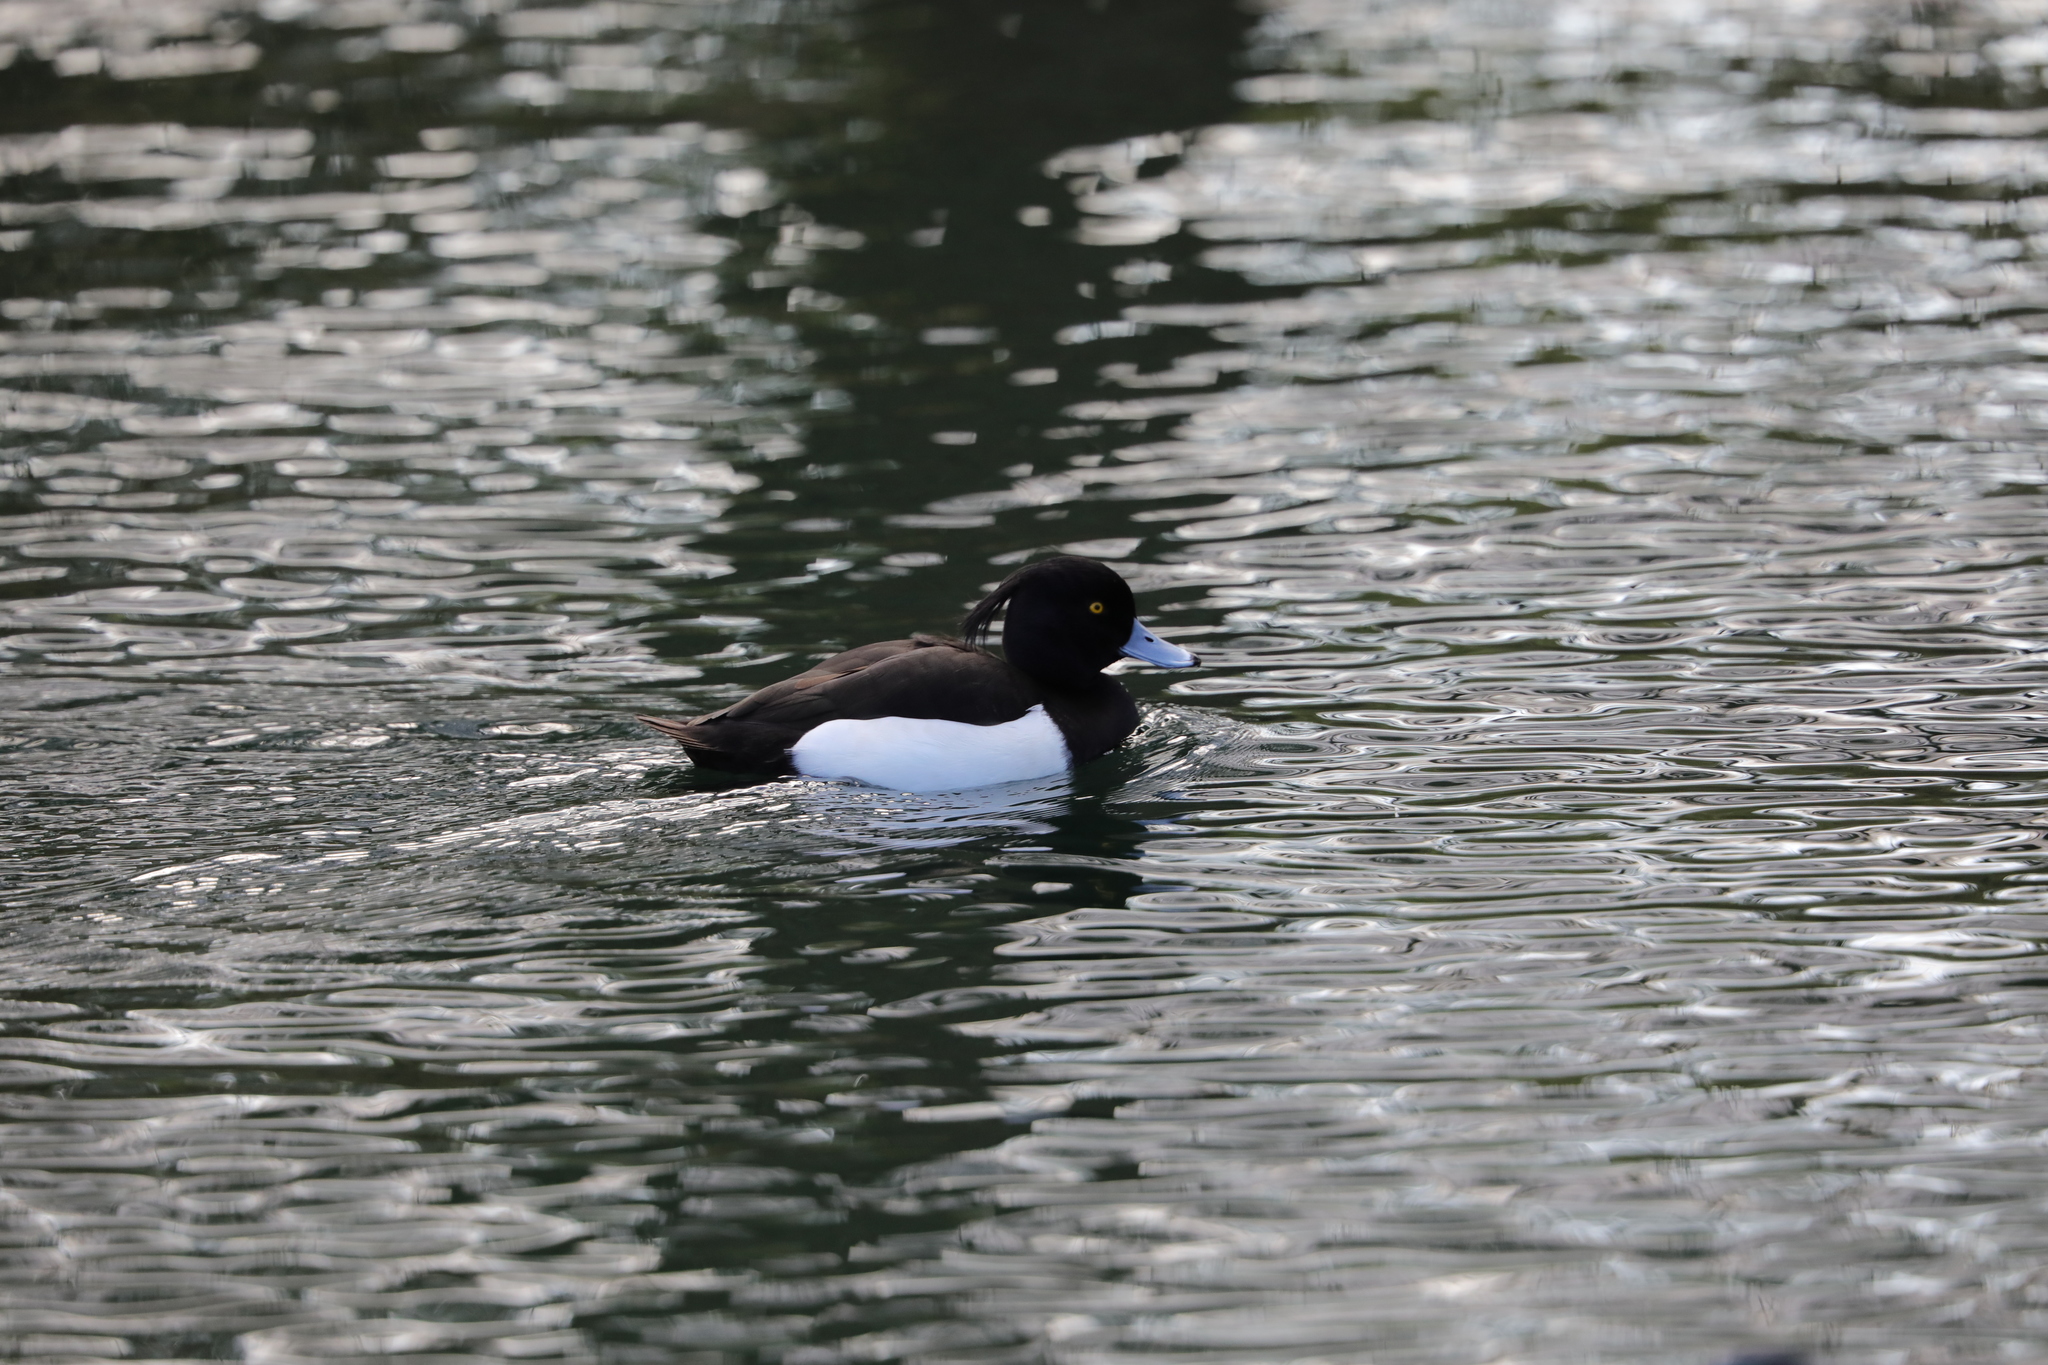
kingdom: Animalia
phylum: Chordata
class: Aves
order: Anseriformes
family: Anatidae
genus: Aythya
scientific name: Aythya fuligula
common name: Tufted duck
